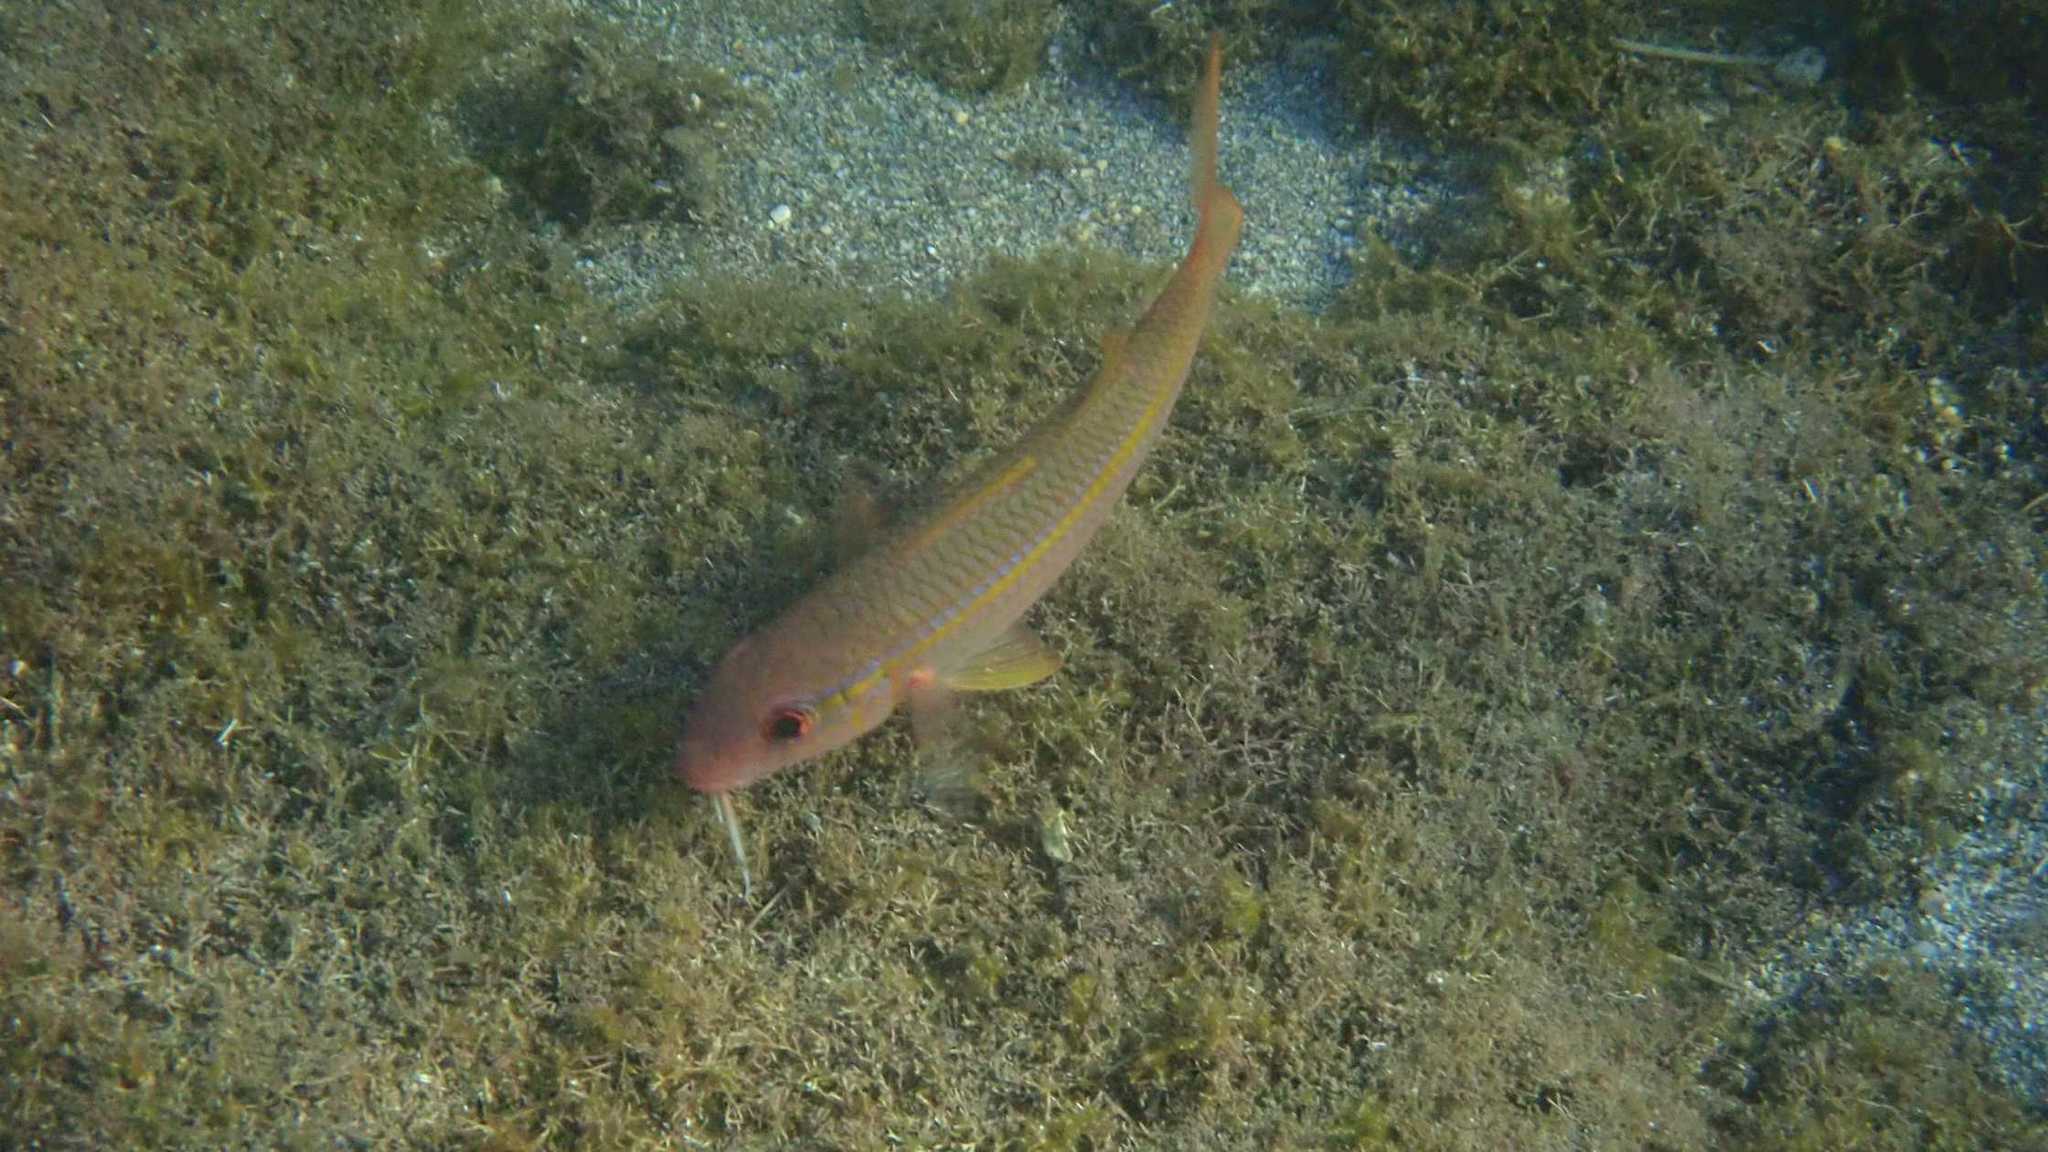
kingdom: Animalia
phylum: Chordata
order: Perciformes
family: Mullidae
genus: Mulloidichthys
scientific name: Mulloidichthys vanicolensis
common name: Yellowfin goatfish
